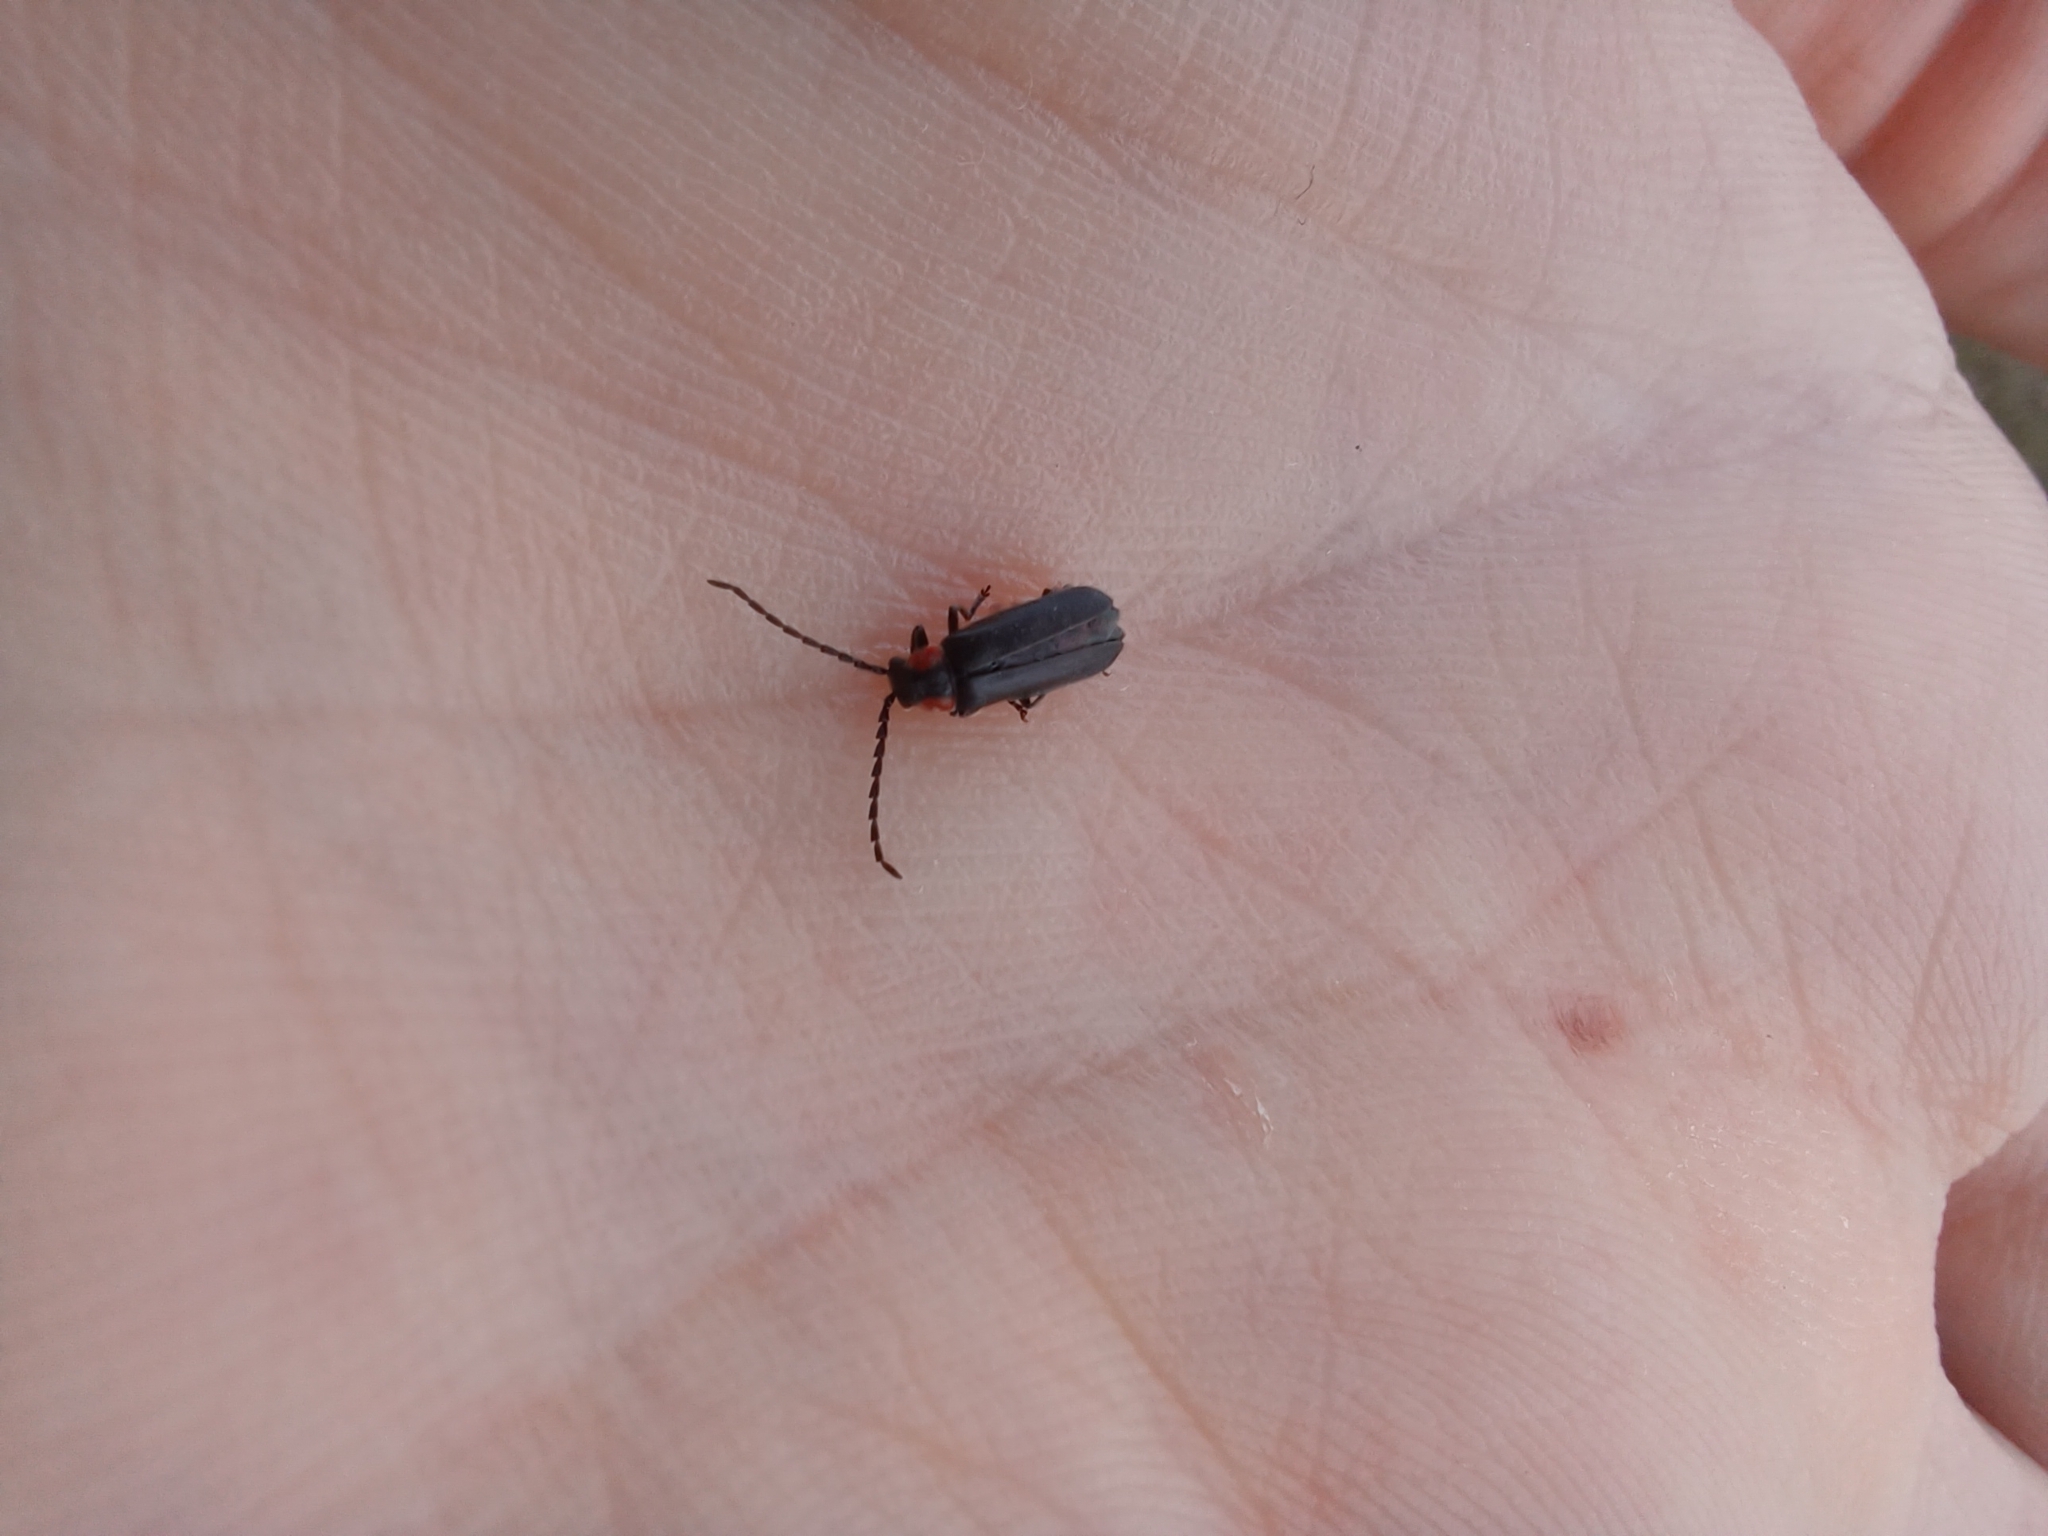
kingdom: Animalia
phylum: Arthropoda
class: Insecta
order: Coleoptera
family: Cantharidae
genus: Polemius
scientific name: Polemius
